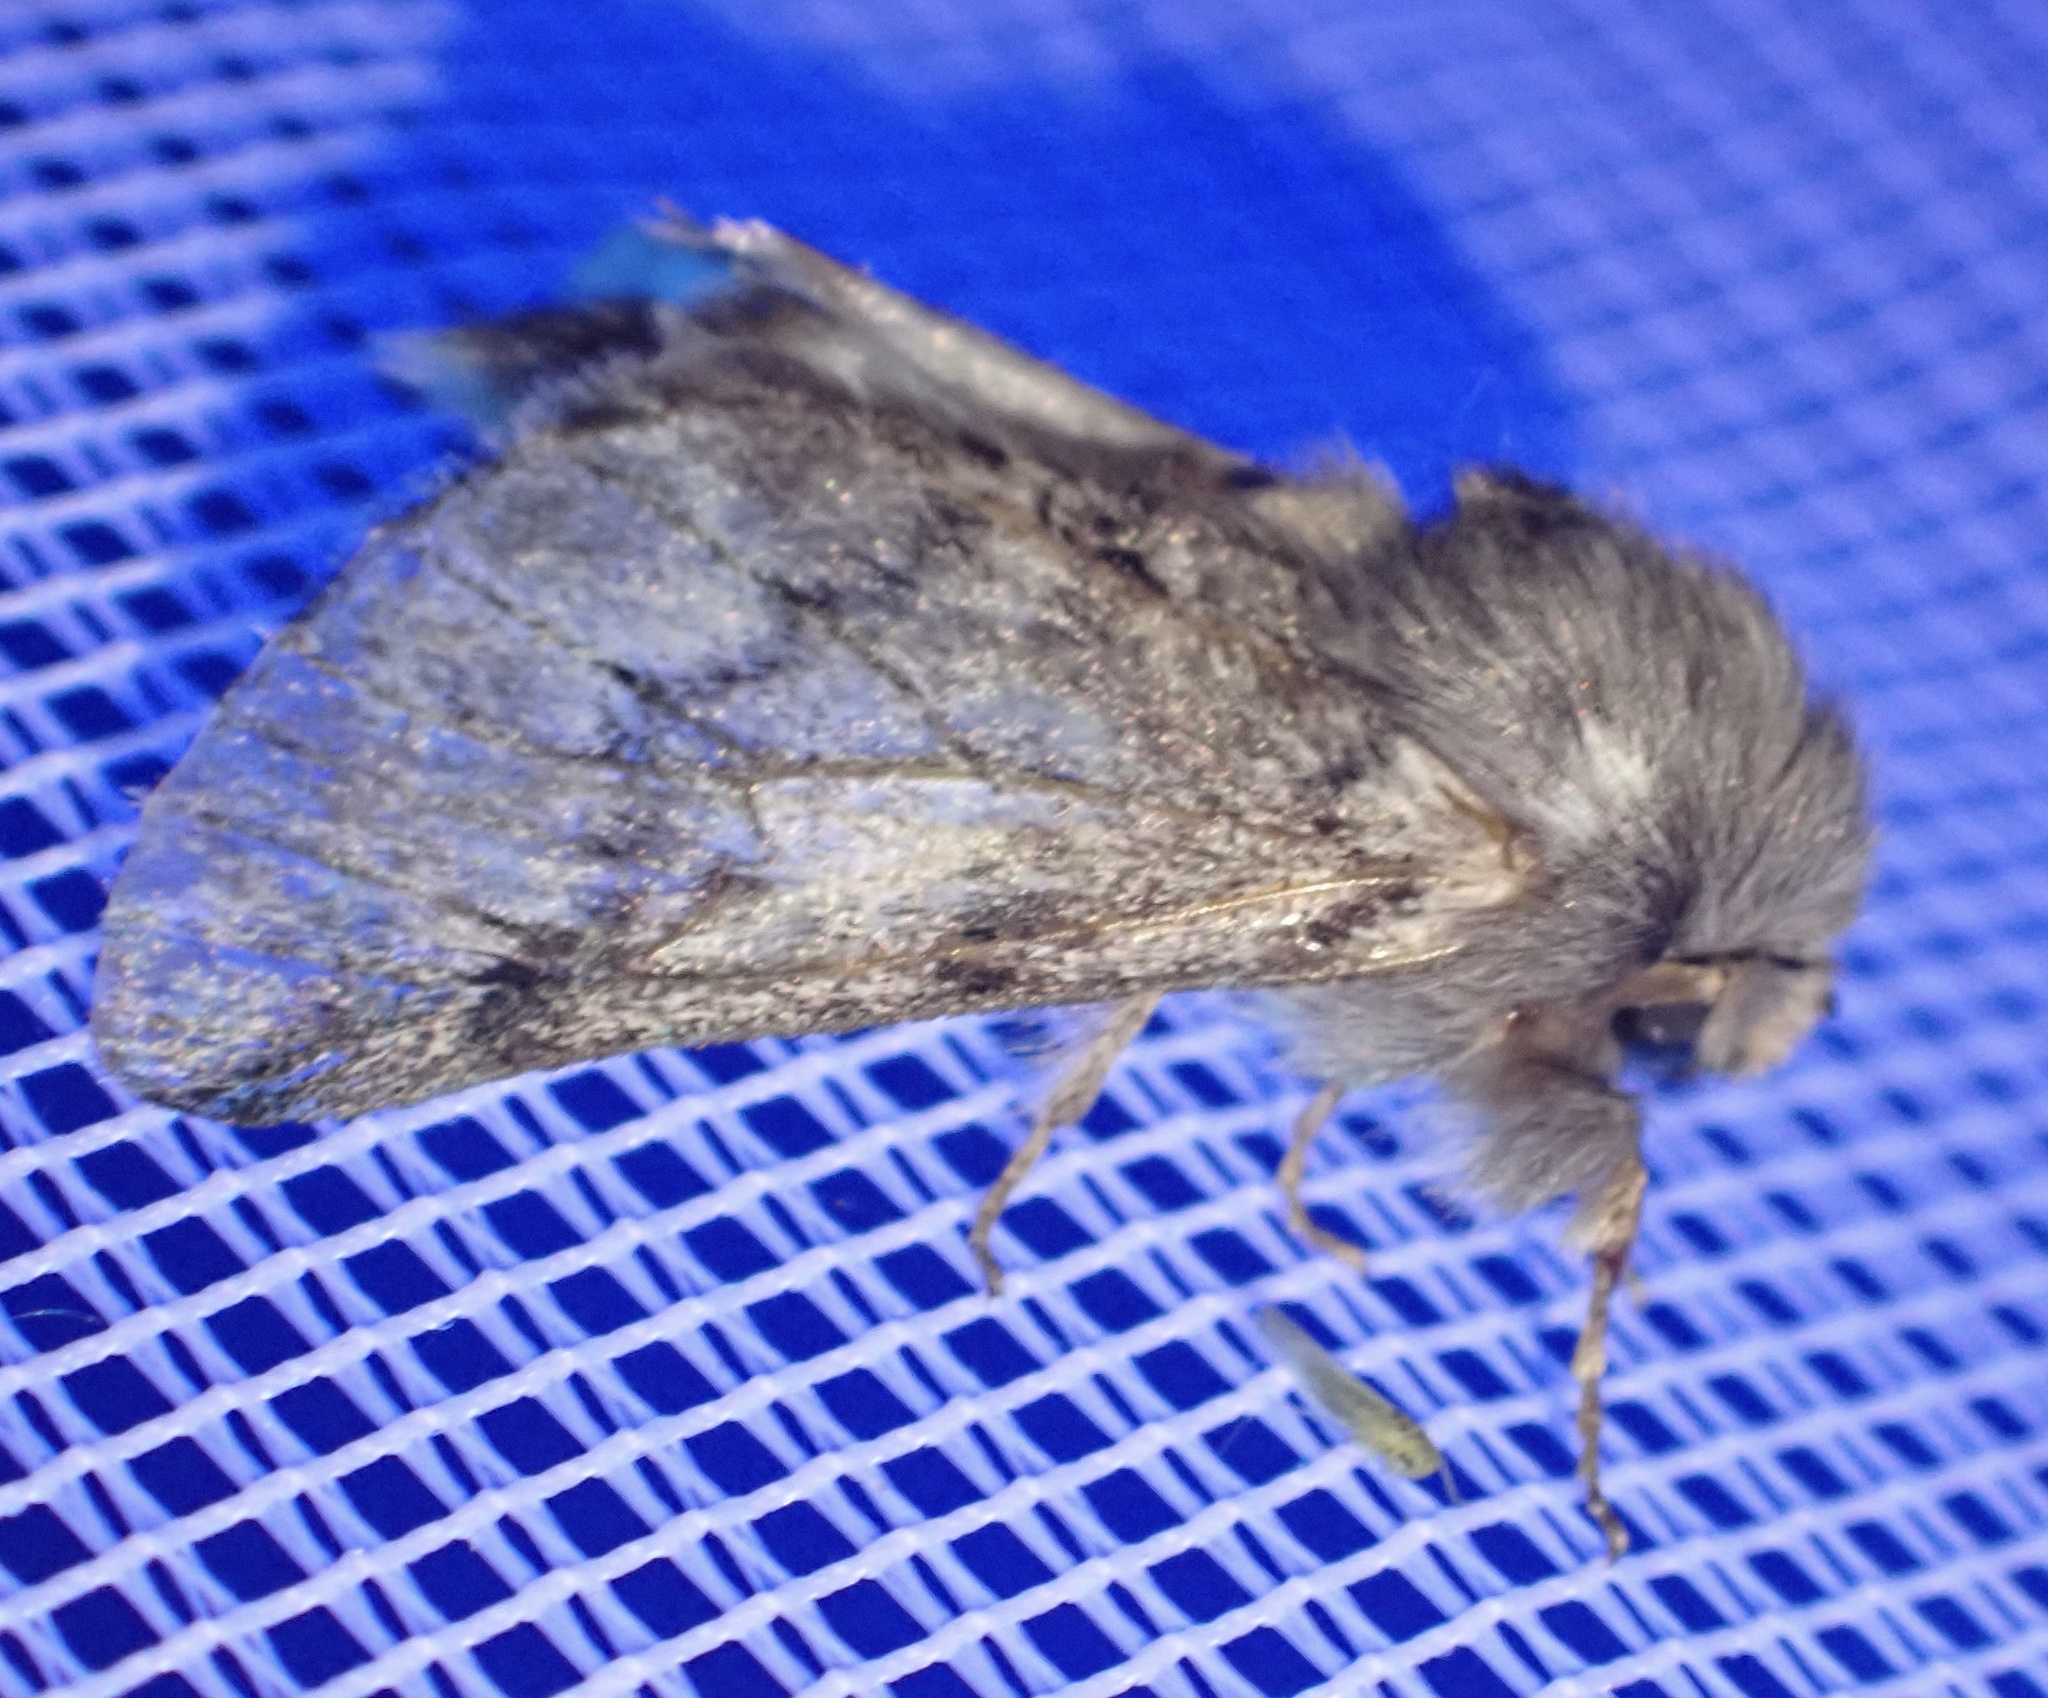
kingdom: Animalia
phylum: Arthropoda
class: Insecta
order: Lepidoptera
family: Notodontidae
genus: Thaumetopoea
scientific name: Thaumetopoea pityocampa
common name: Pine processionary
